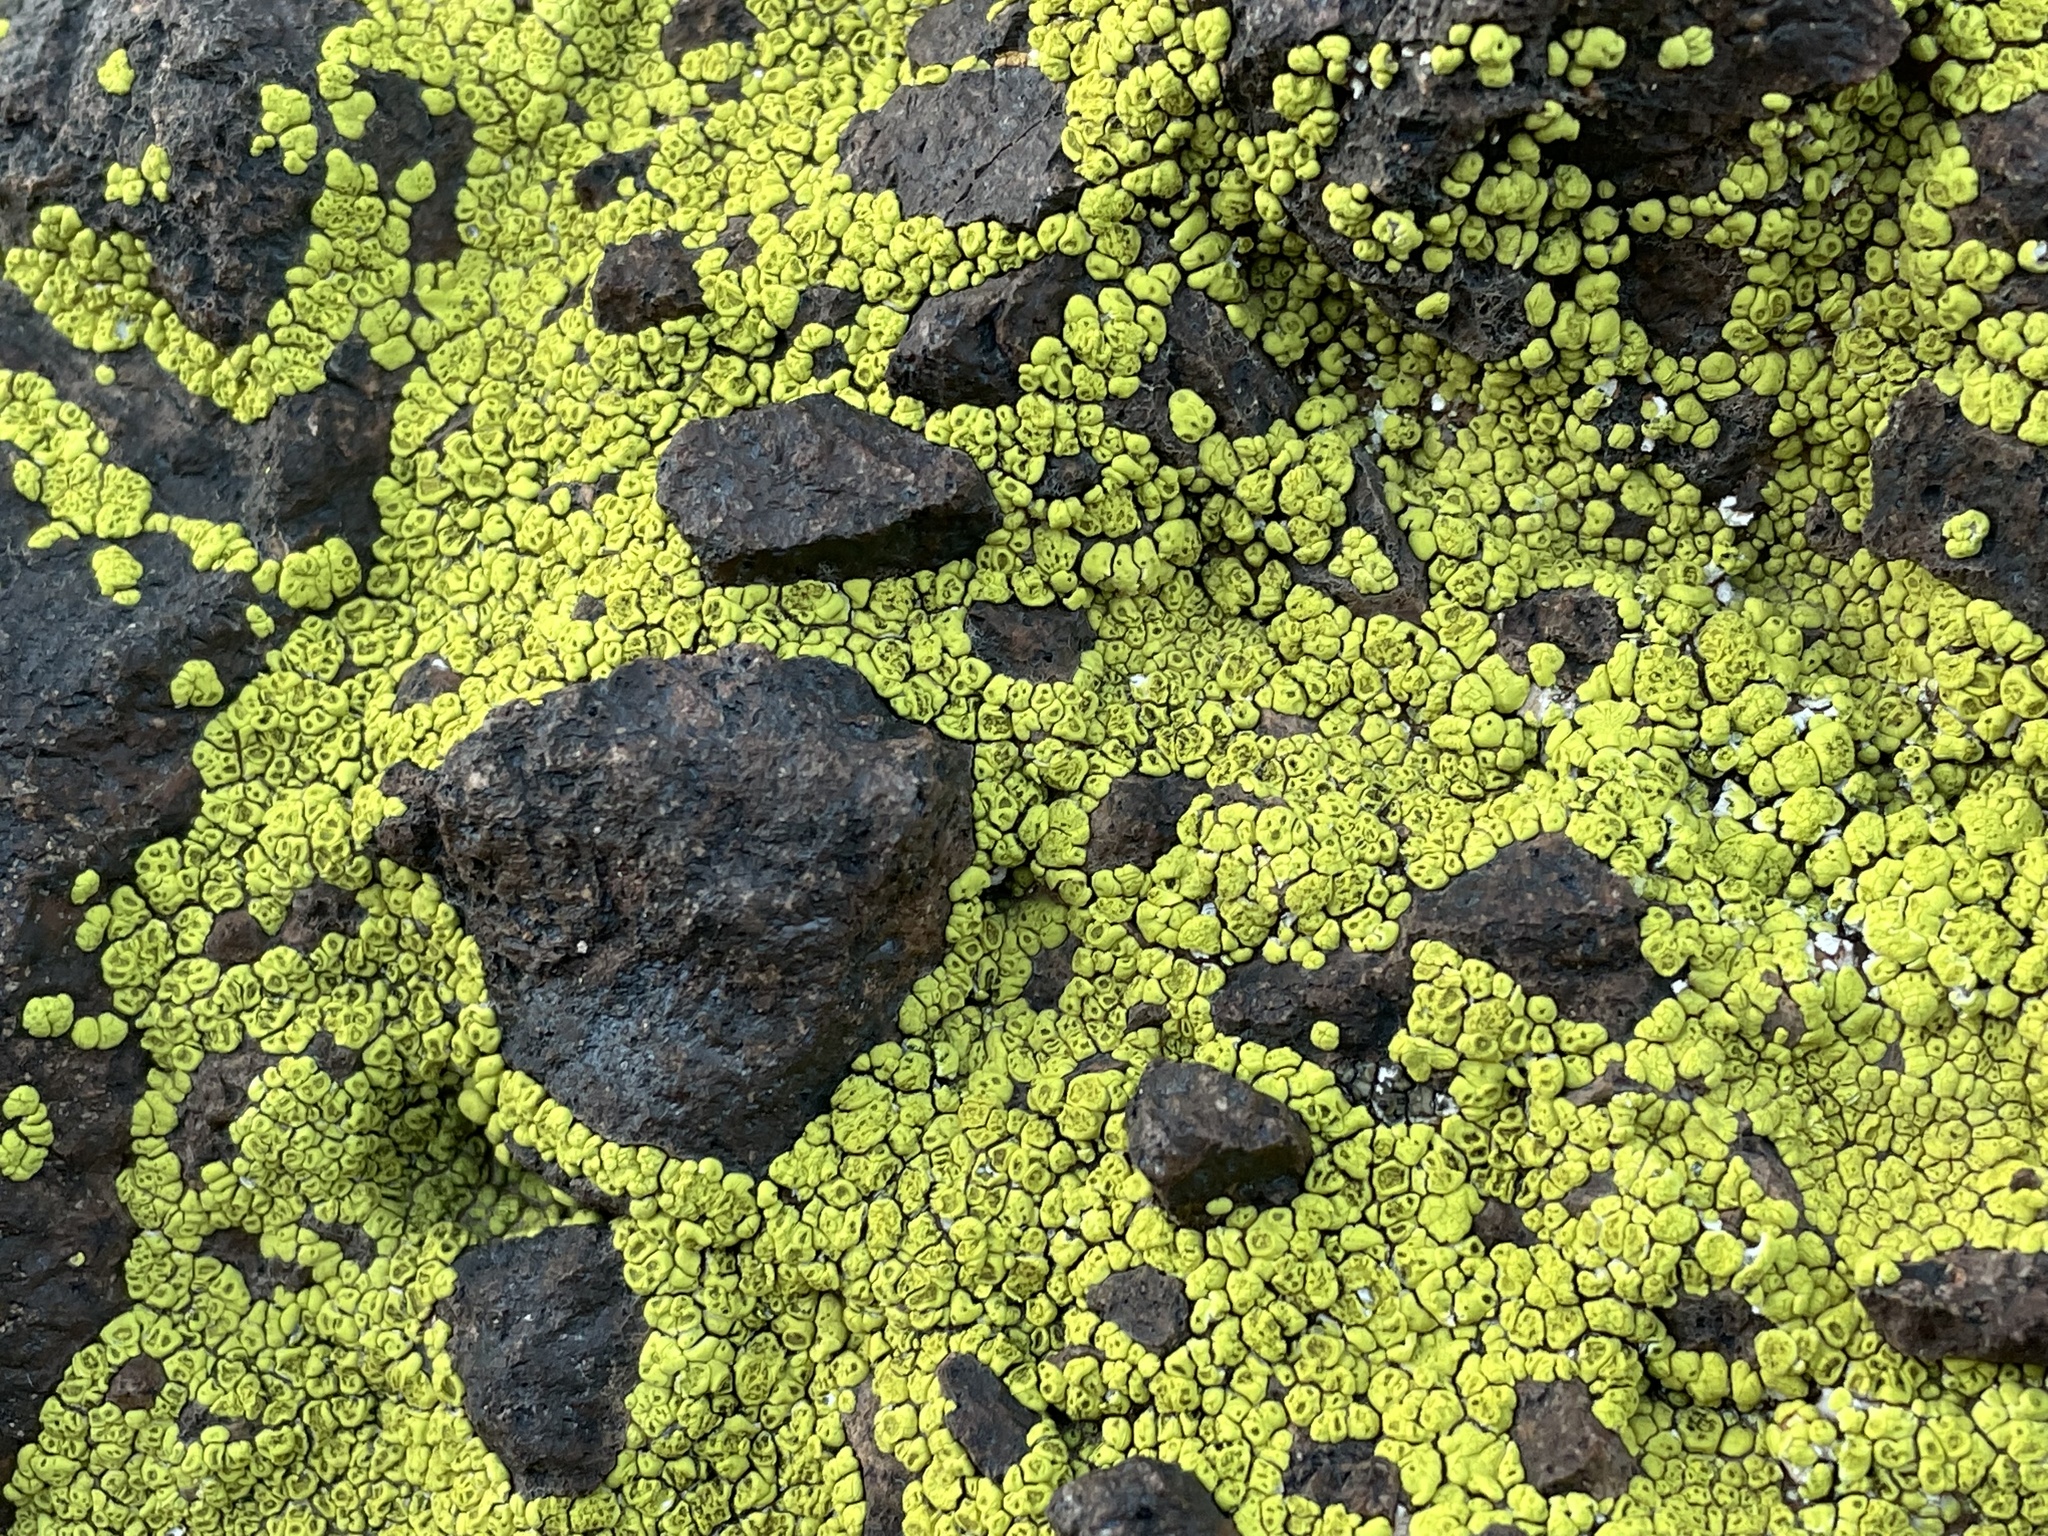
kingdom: Fungi
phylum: Ascomycota
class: Lecanoromycetes
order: Acarosporales
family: Acarosporaceae
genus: Acarospora
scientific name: Acarospora socialis
